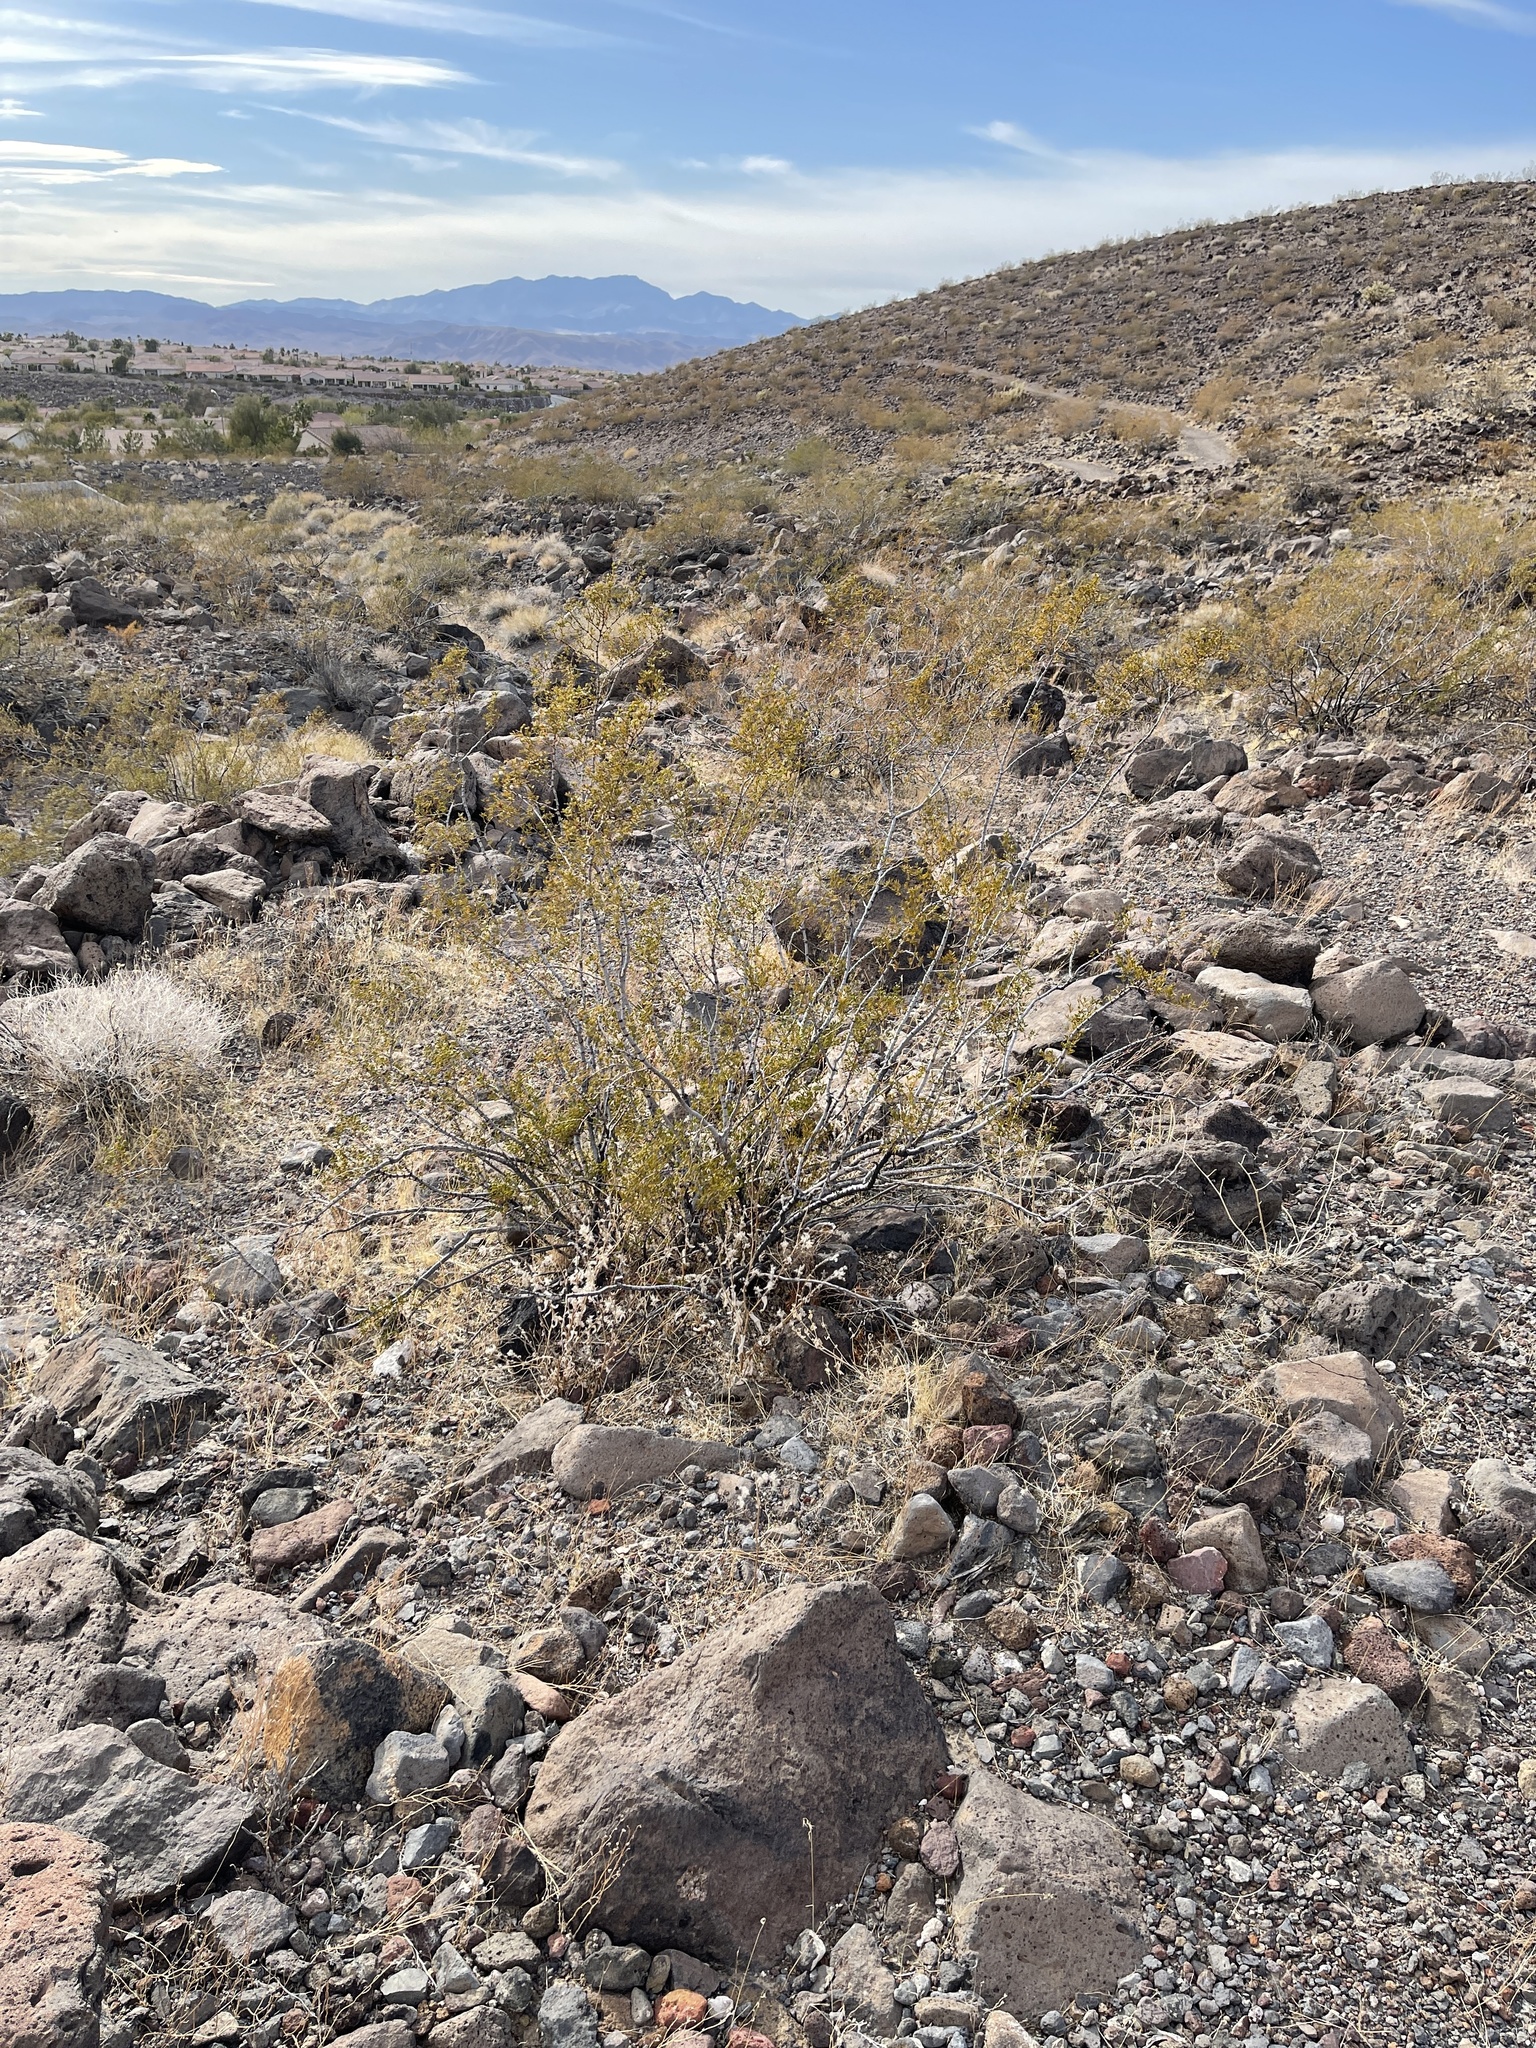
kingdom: Plantae
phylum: Tracheophyta
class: Magnoliopsida
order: Zygophyllales
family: Zygophyllaceae
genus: Larrea
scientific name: Larrea tridentata
